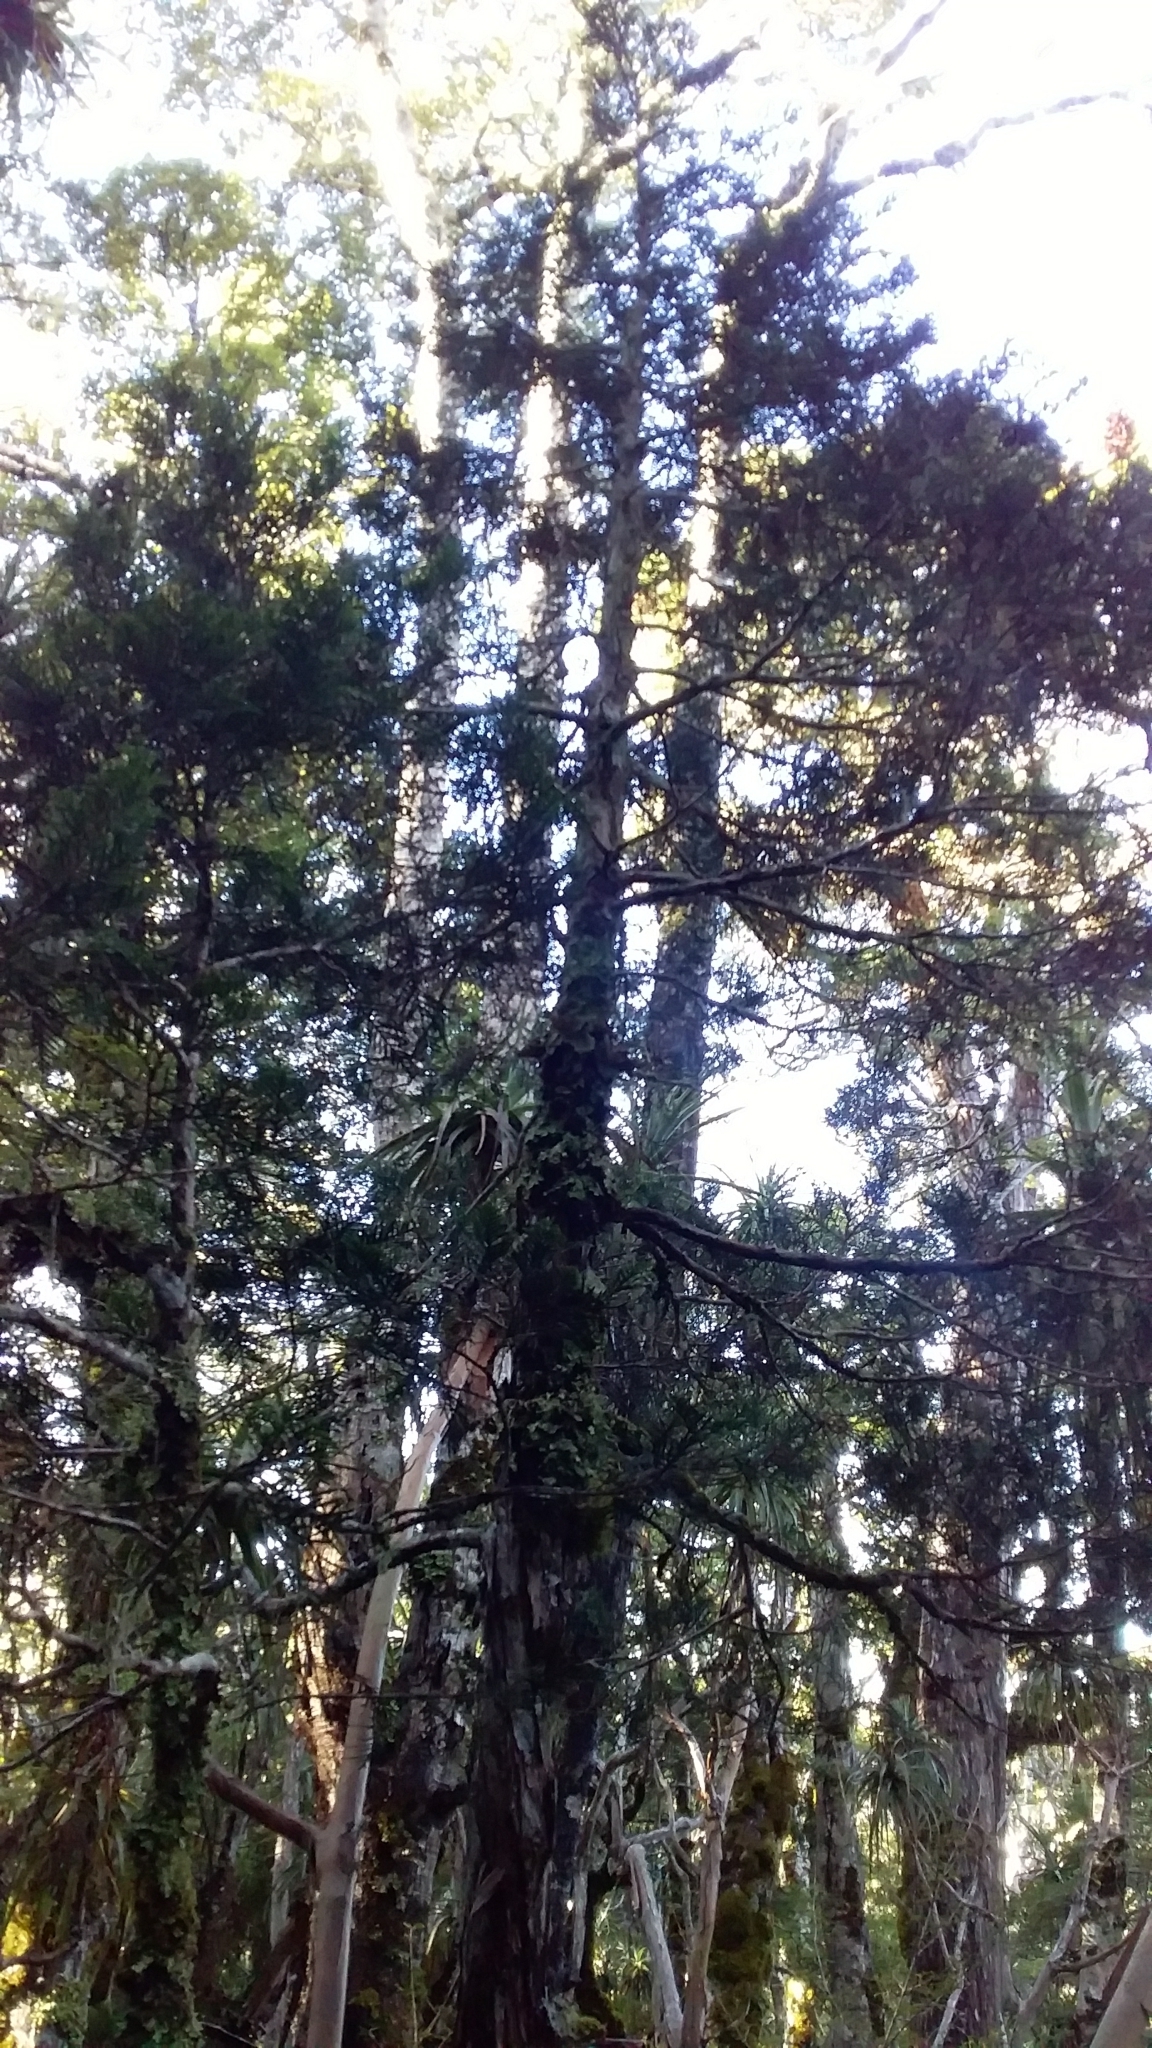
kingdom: Plantae
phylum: Tracheophyta
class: Pinopsida
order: Pinales
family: Cupressaceae
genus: Libocedrus
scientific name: Libocedrus bidwillii
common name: Cedar
